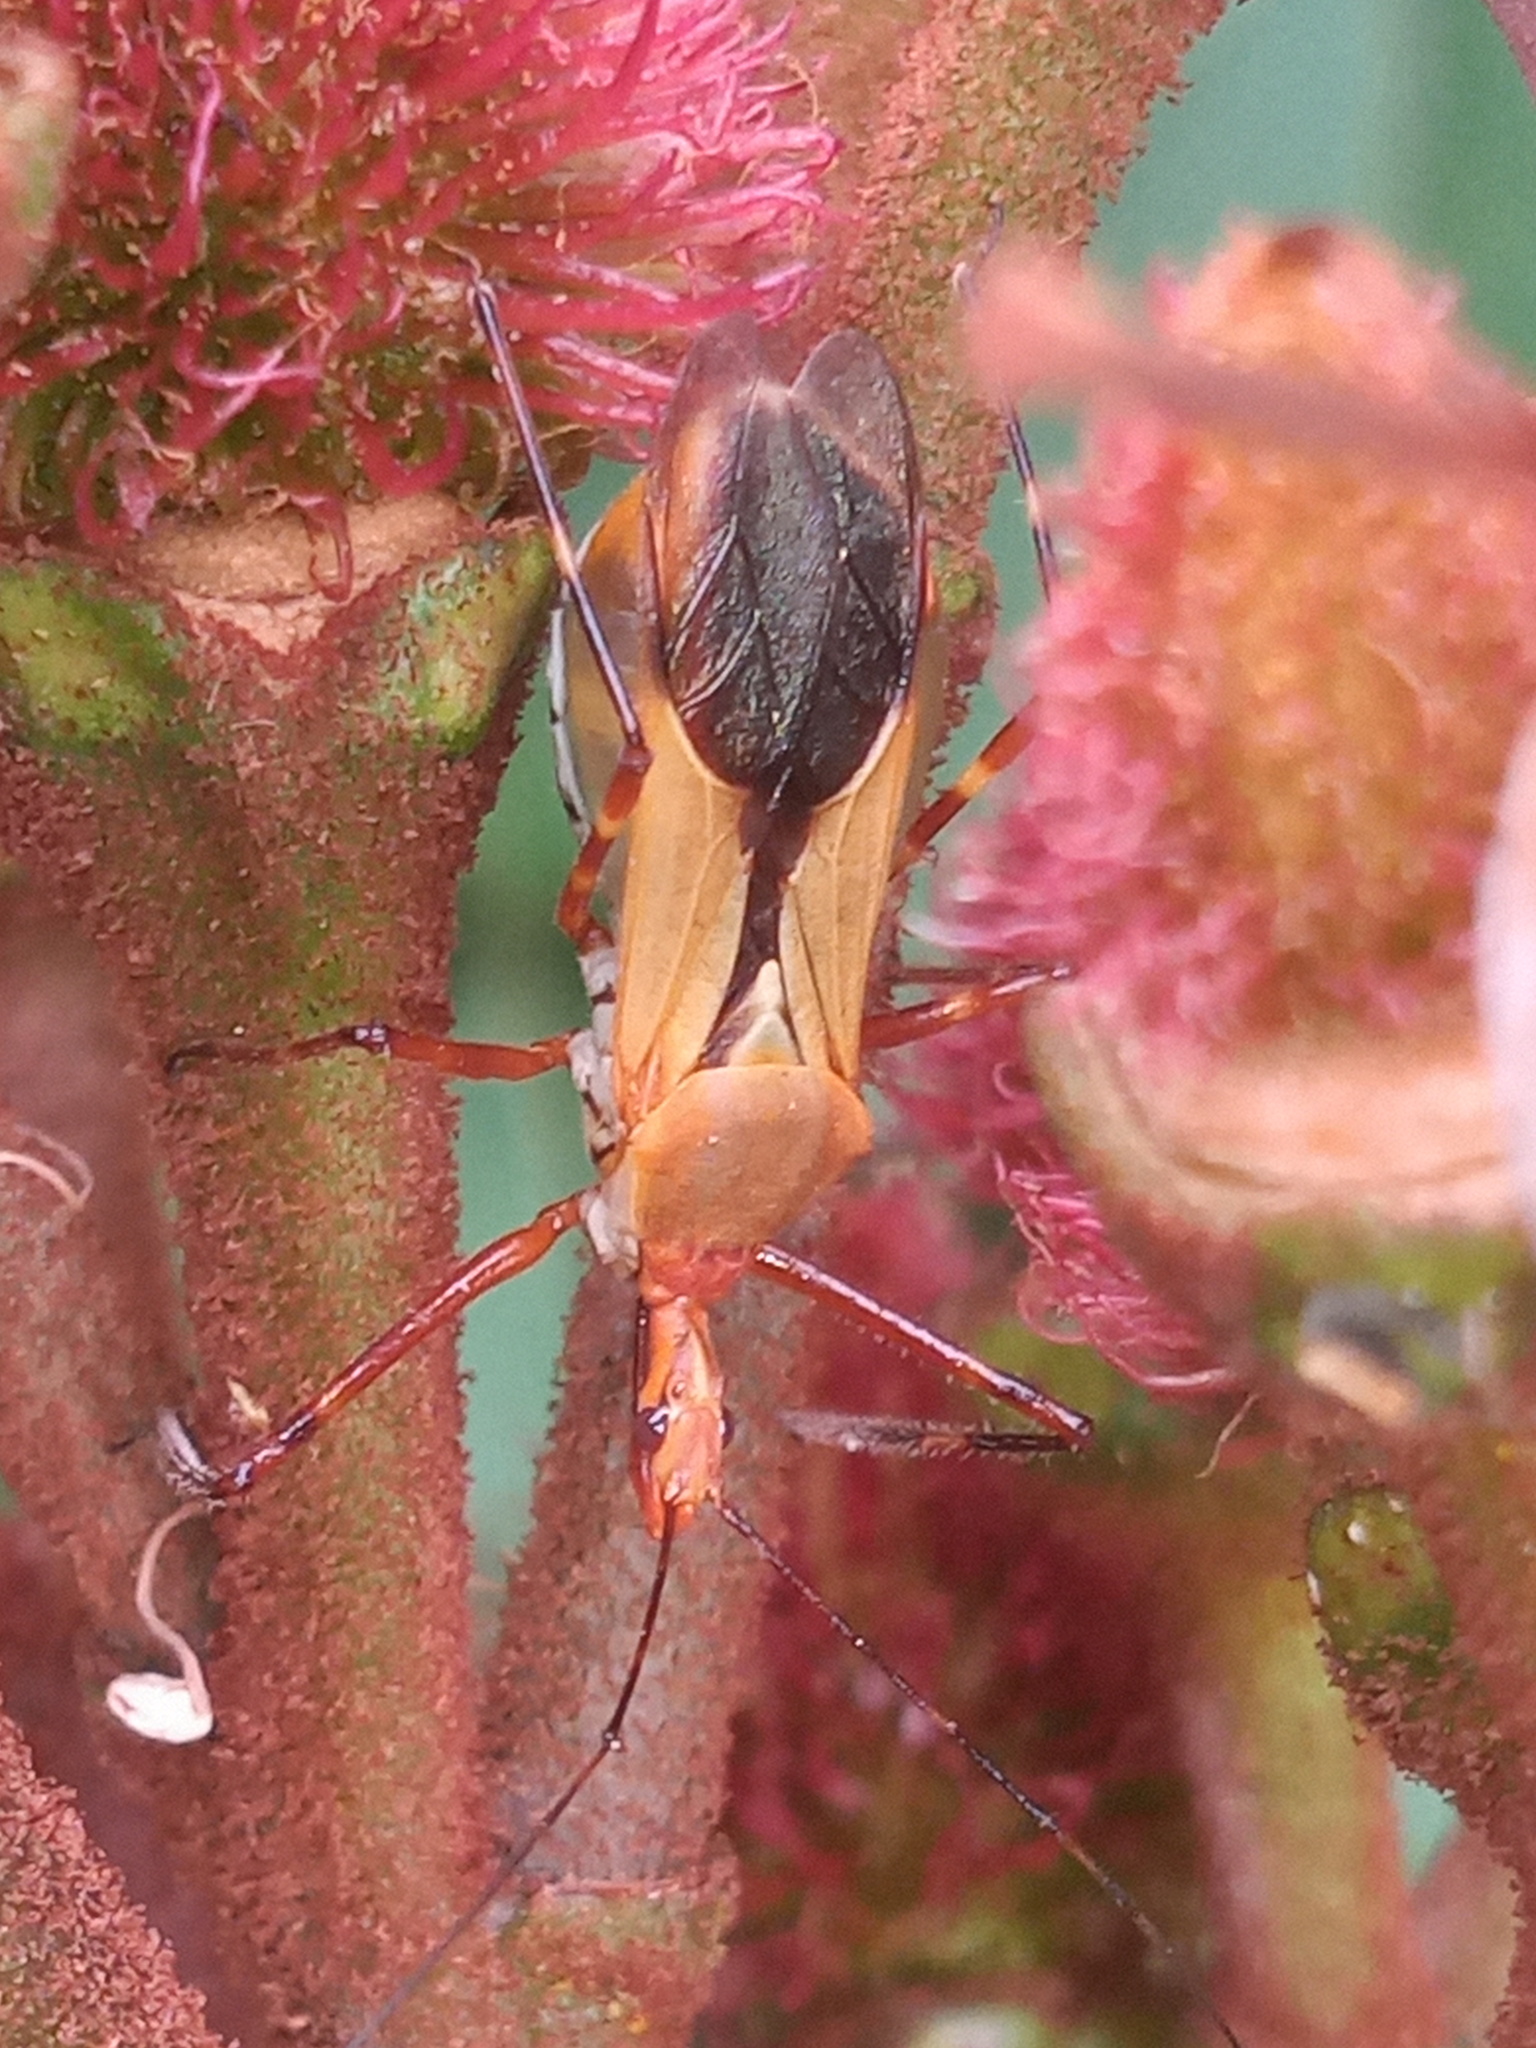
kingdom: Animalia
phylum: Arthropoda
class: Insecta
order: Hemiptera
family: Reduviidae
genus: Zelus
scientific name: Zelus laticornis
